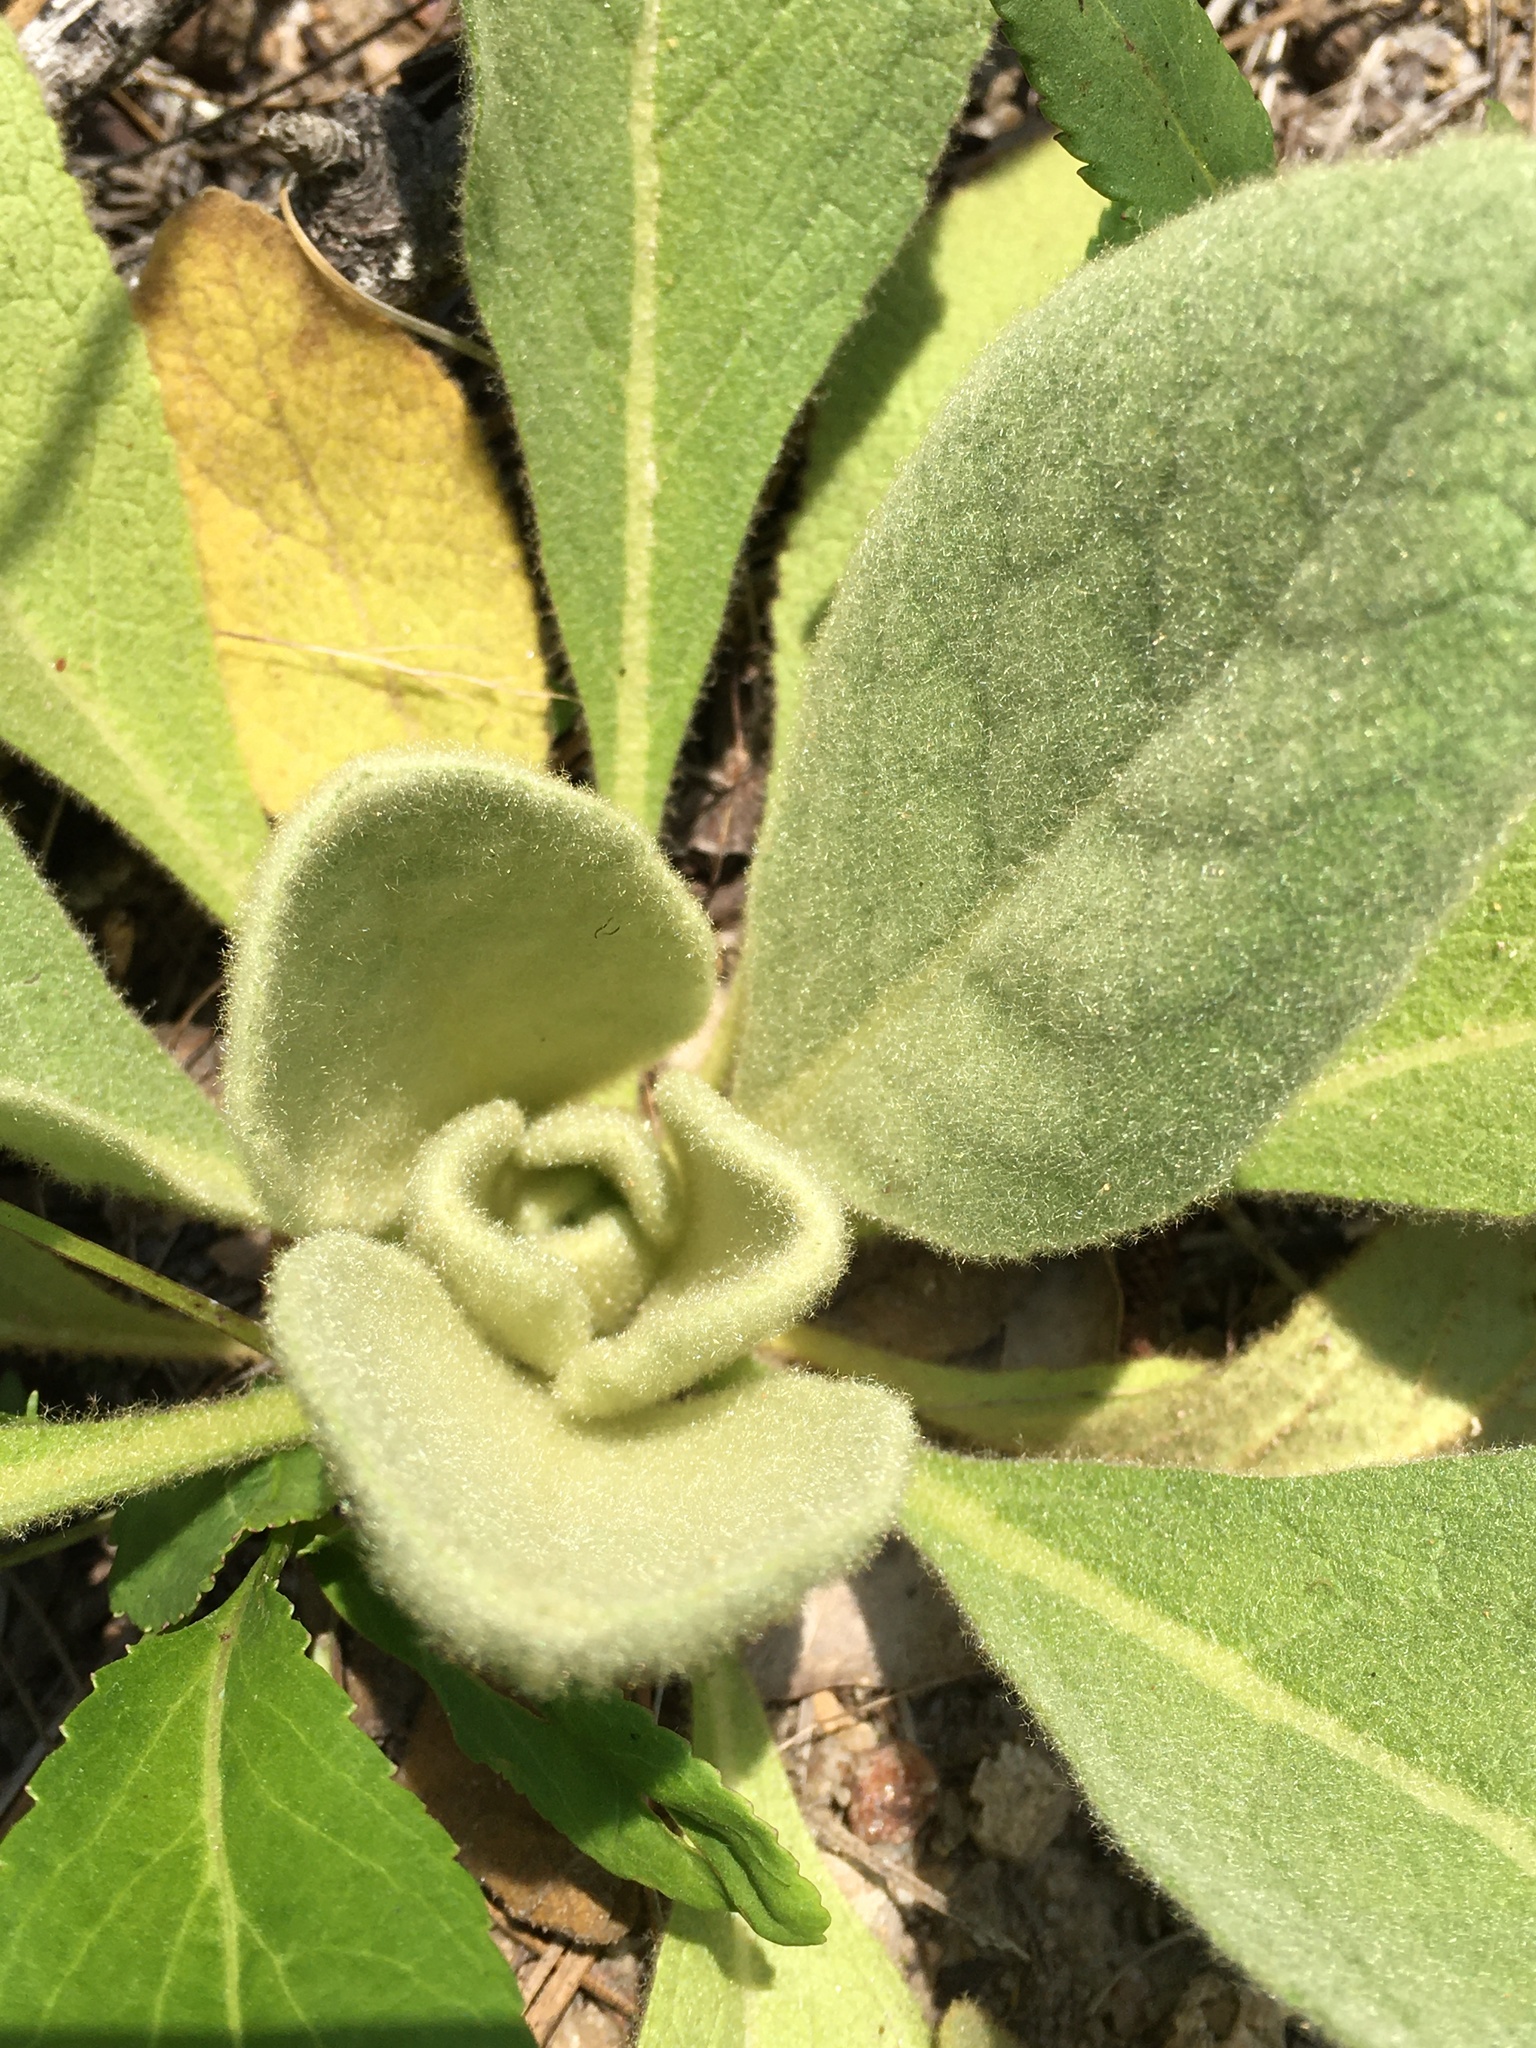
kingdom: Plantae
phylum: Tracheophyta
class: Magnoliopsida
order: Lamiales
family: Scrophulariaceae
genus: Verbascum
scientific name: Verbascum thapsus
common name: Common mullein
